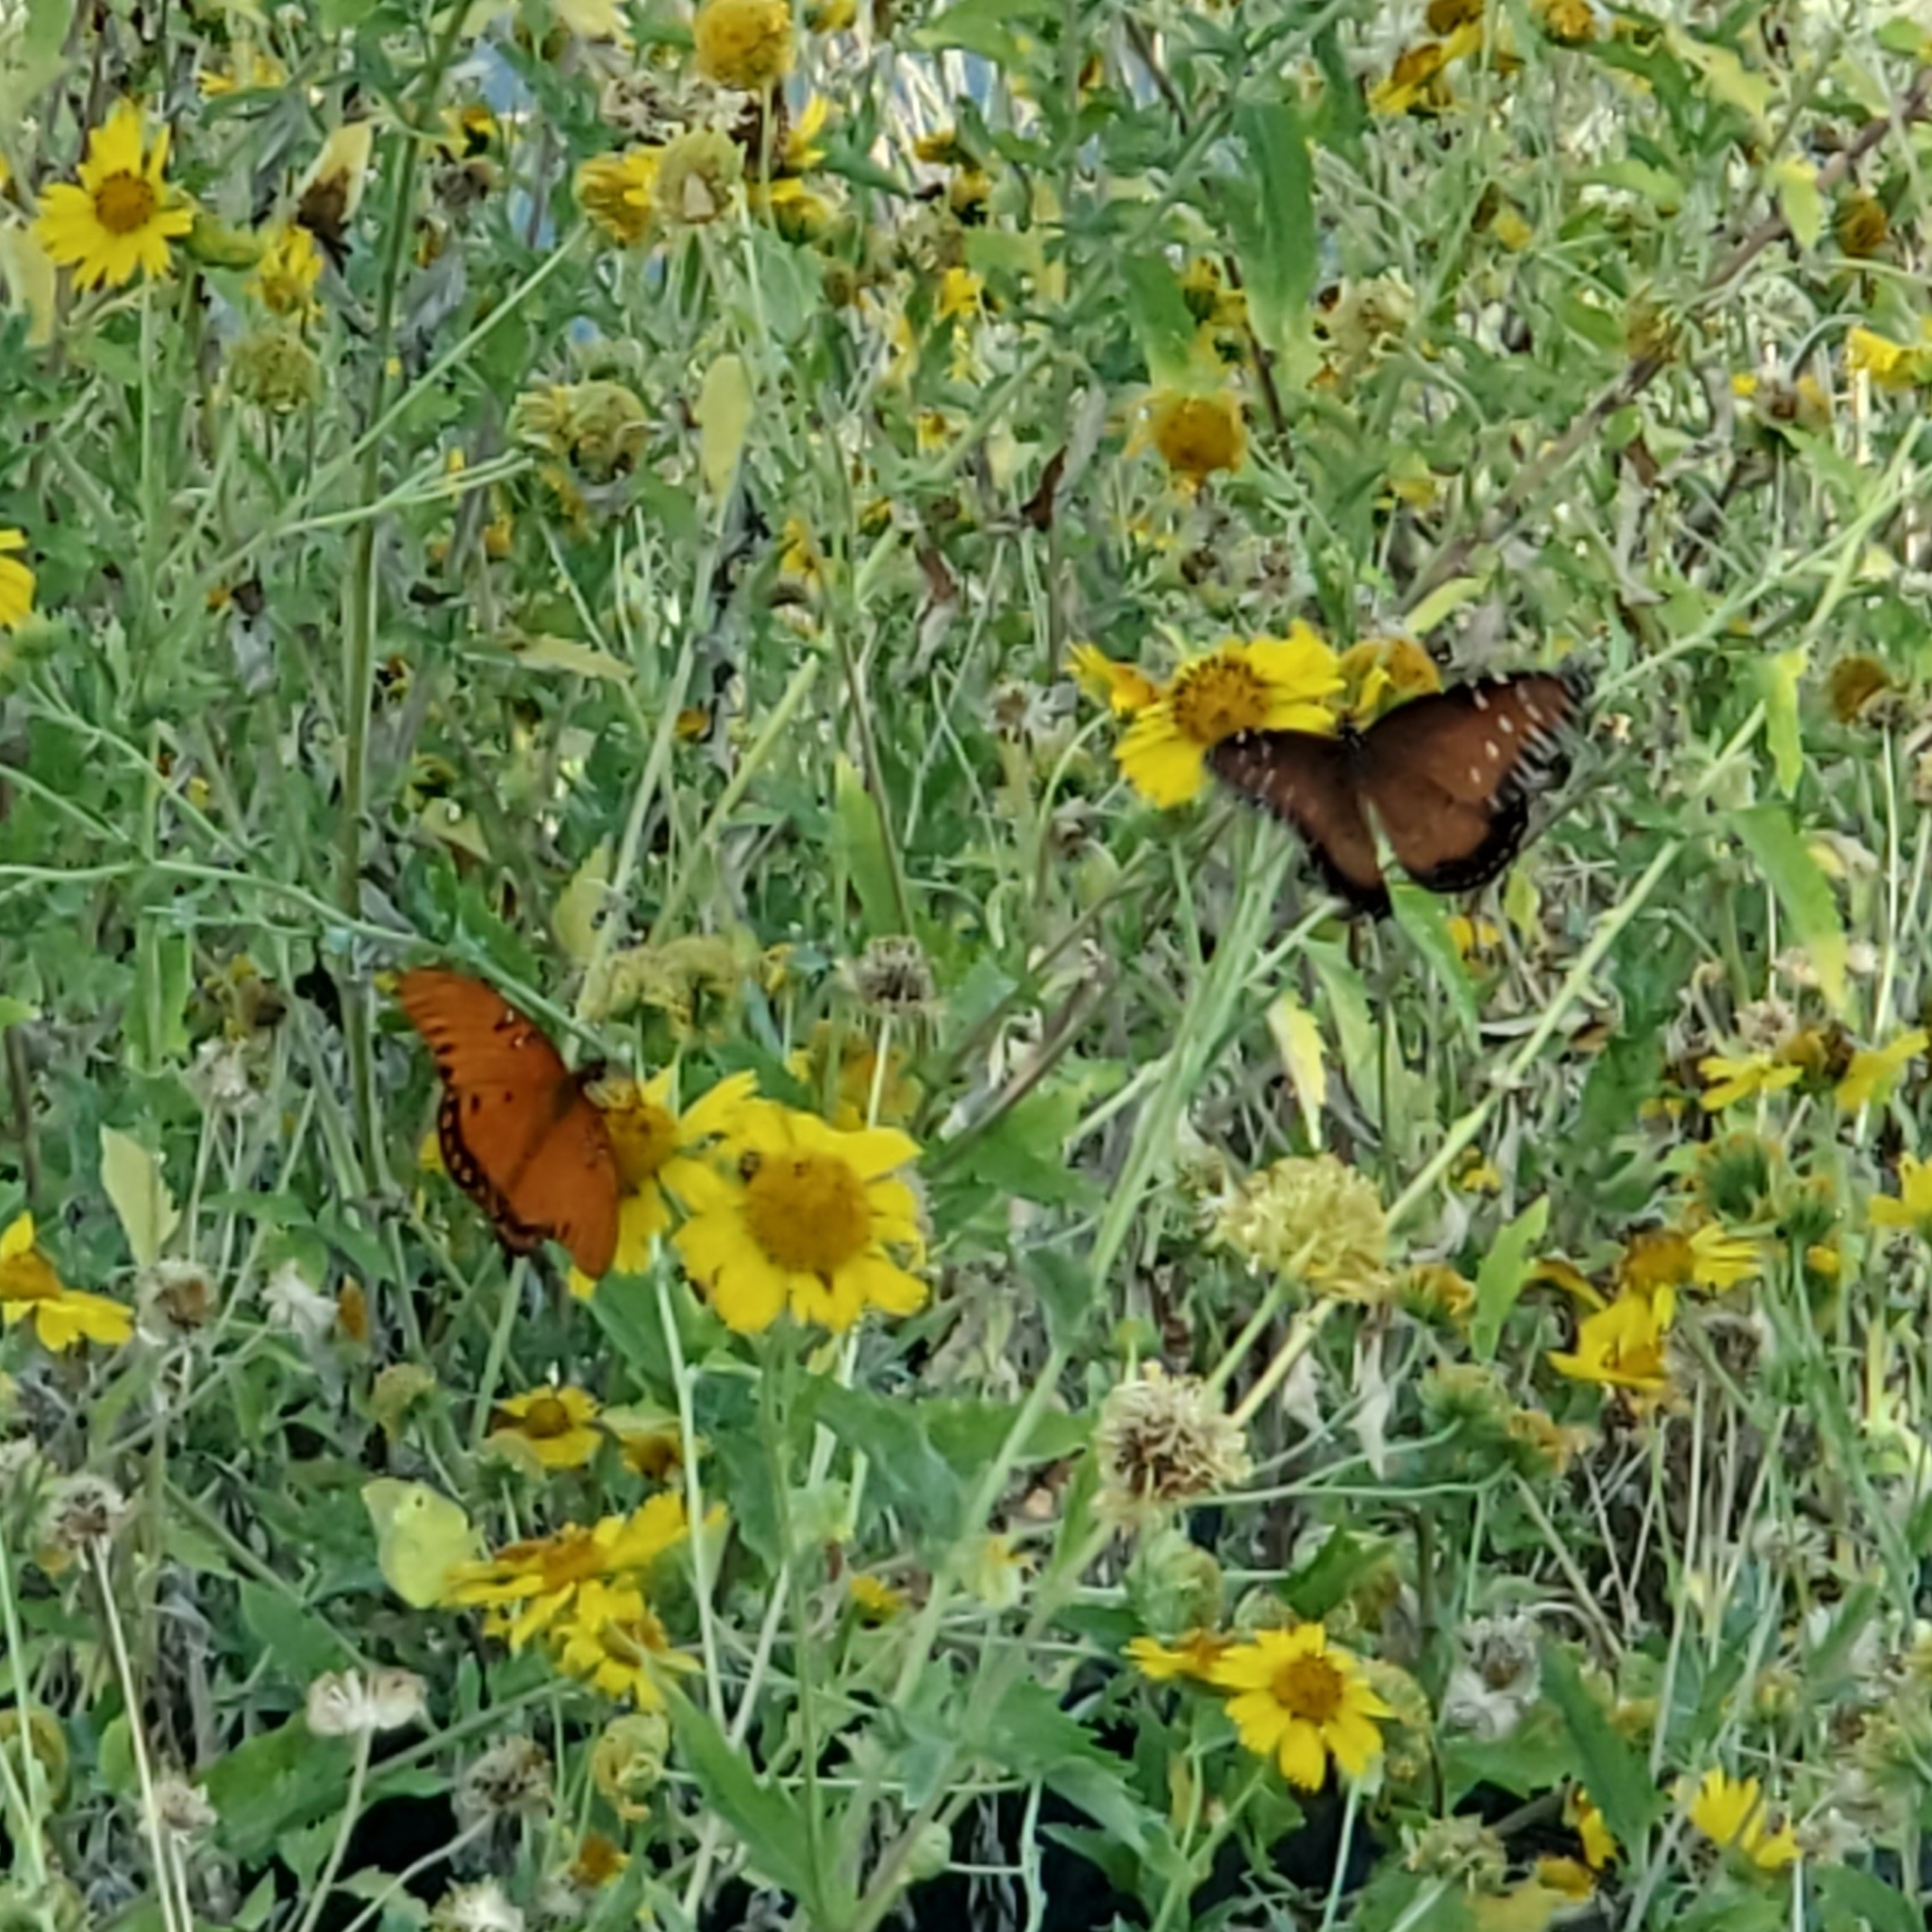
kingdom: Animalia
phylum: Arthropoda
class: Insecta
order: Lepidoptera
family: Nymphalidae
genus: Danaus
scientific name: Danaus gilippus
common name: Queen
